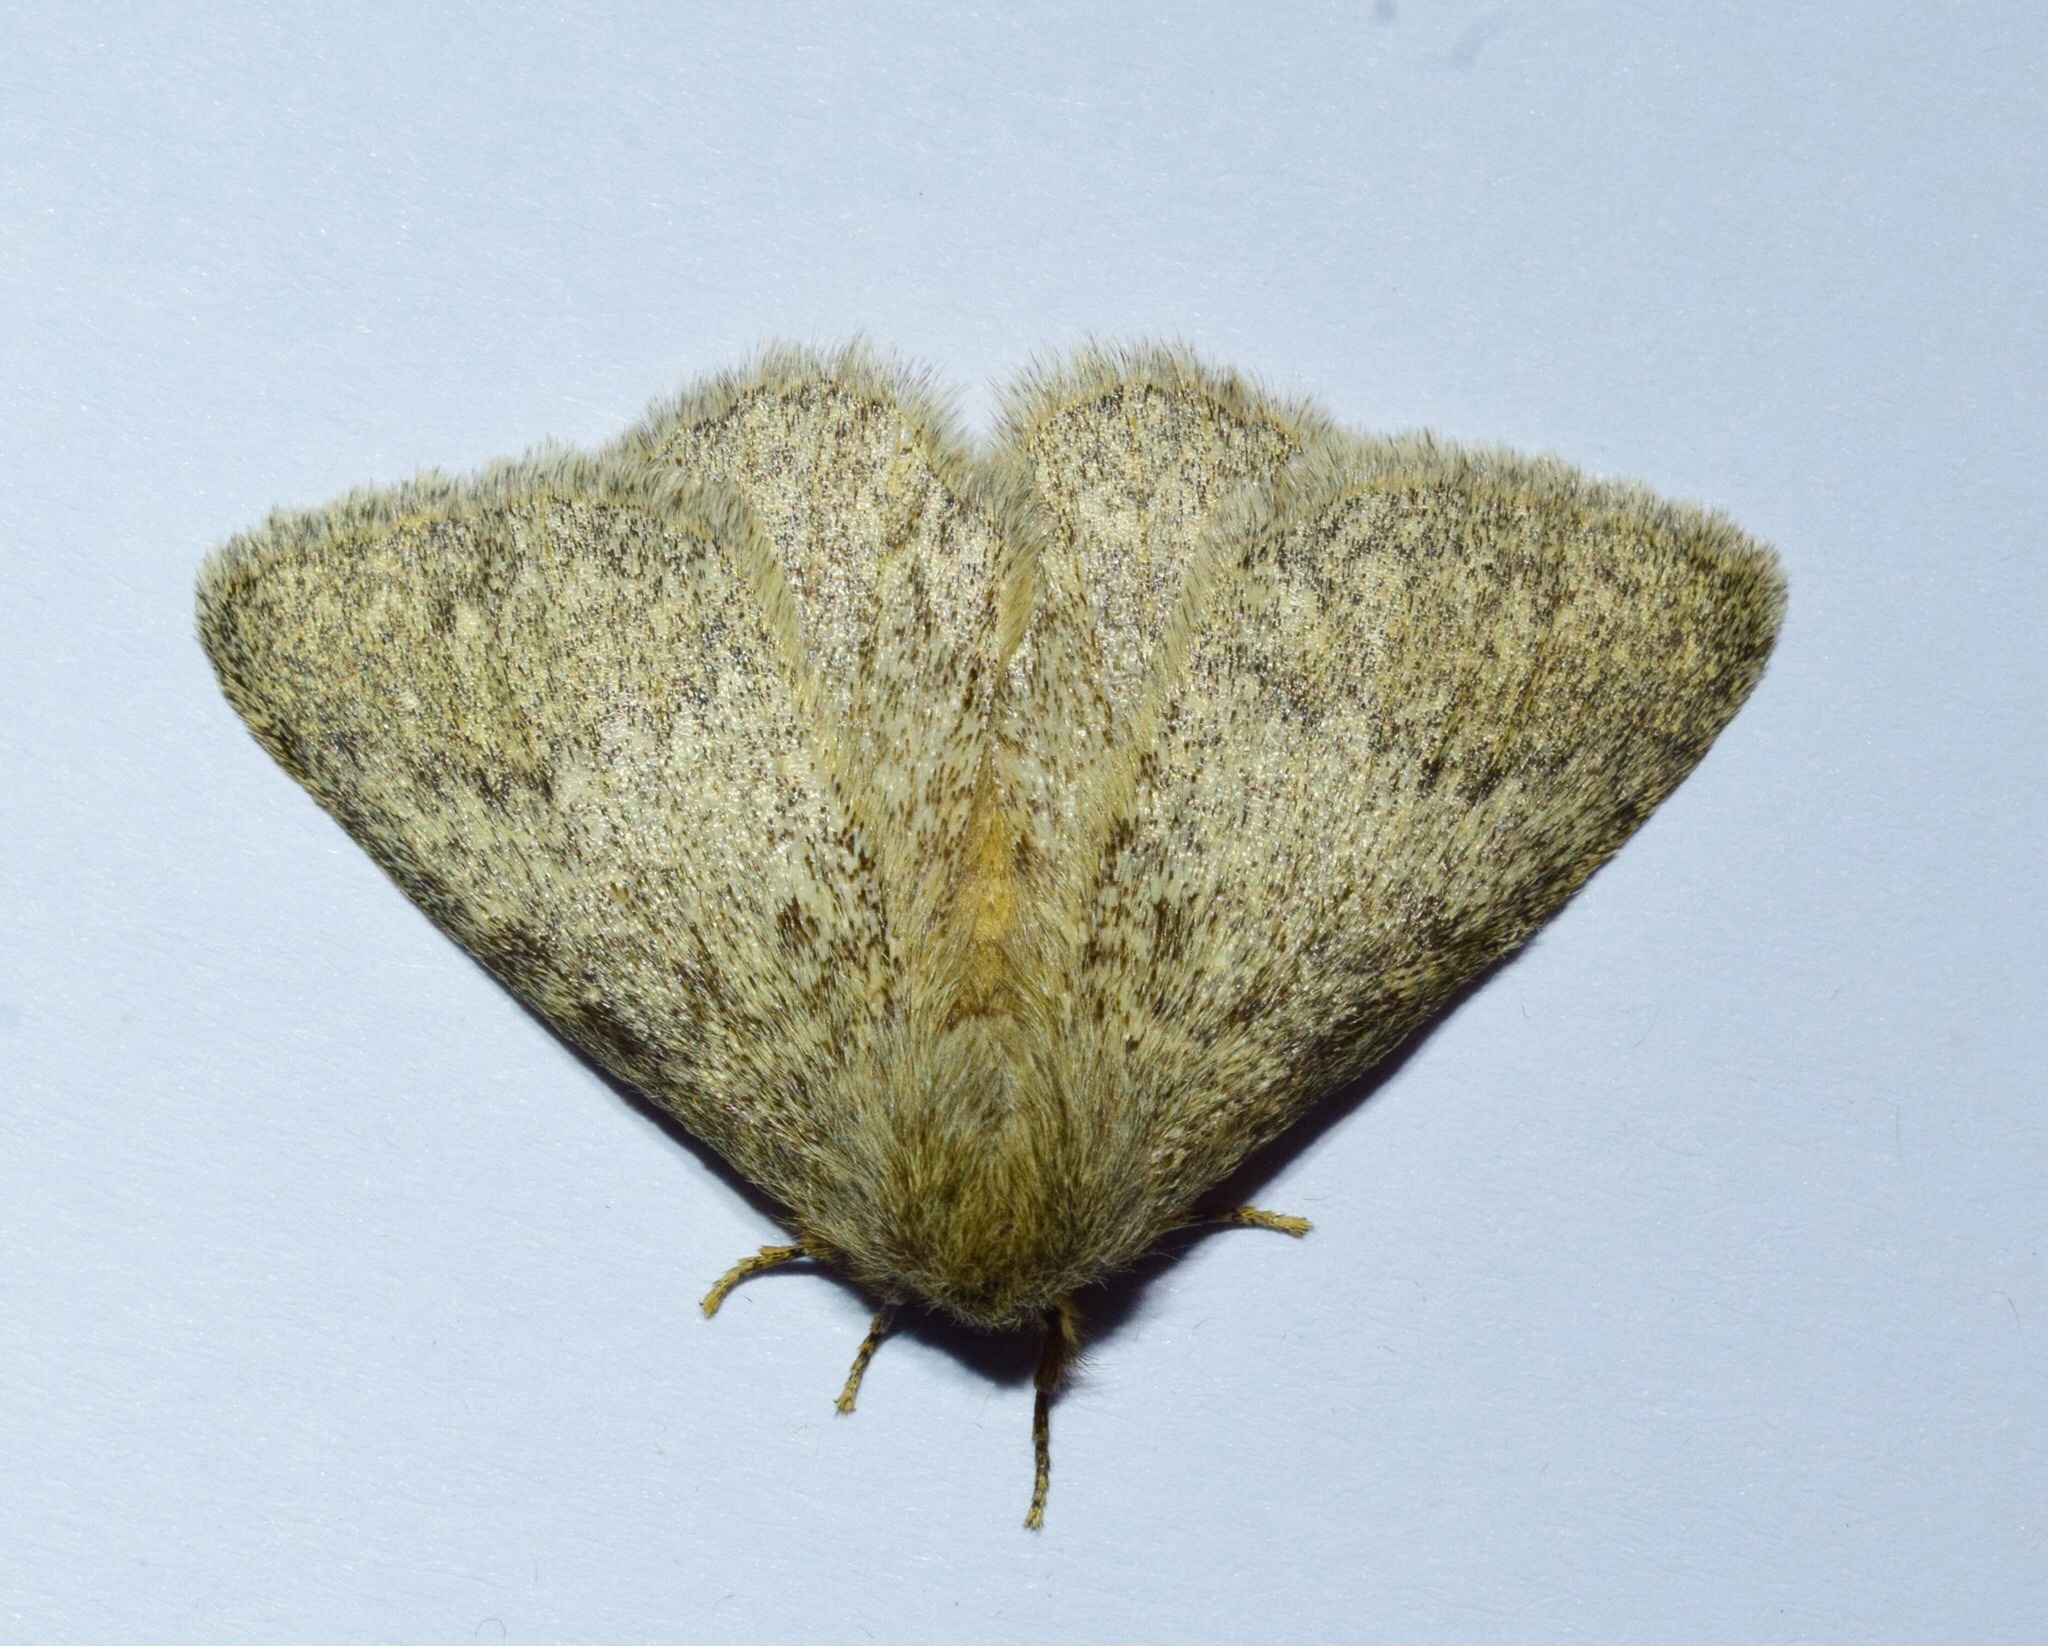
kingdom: Animalia
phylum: Arthropoda
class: Insecta
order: Lepidoptera
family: Eupterotidae
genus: Lichenopteryx
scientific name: Lichenopteryx despecta
